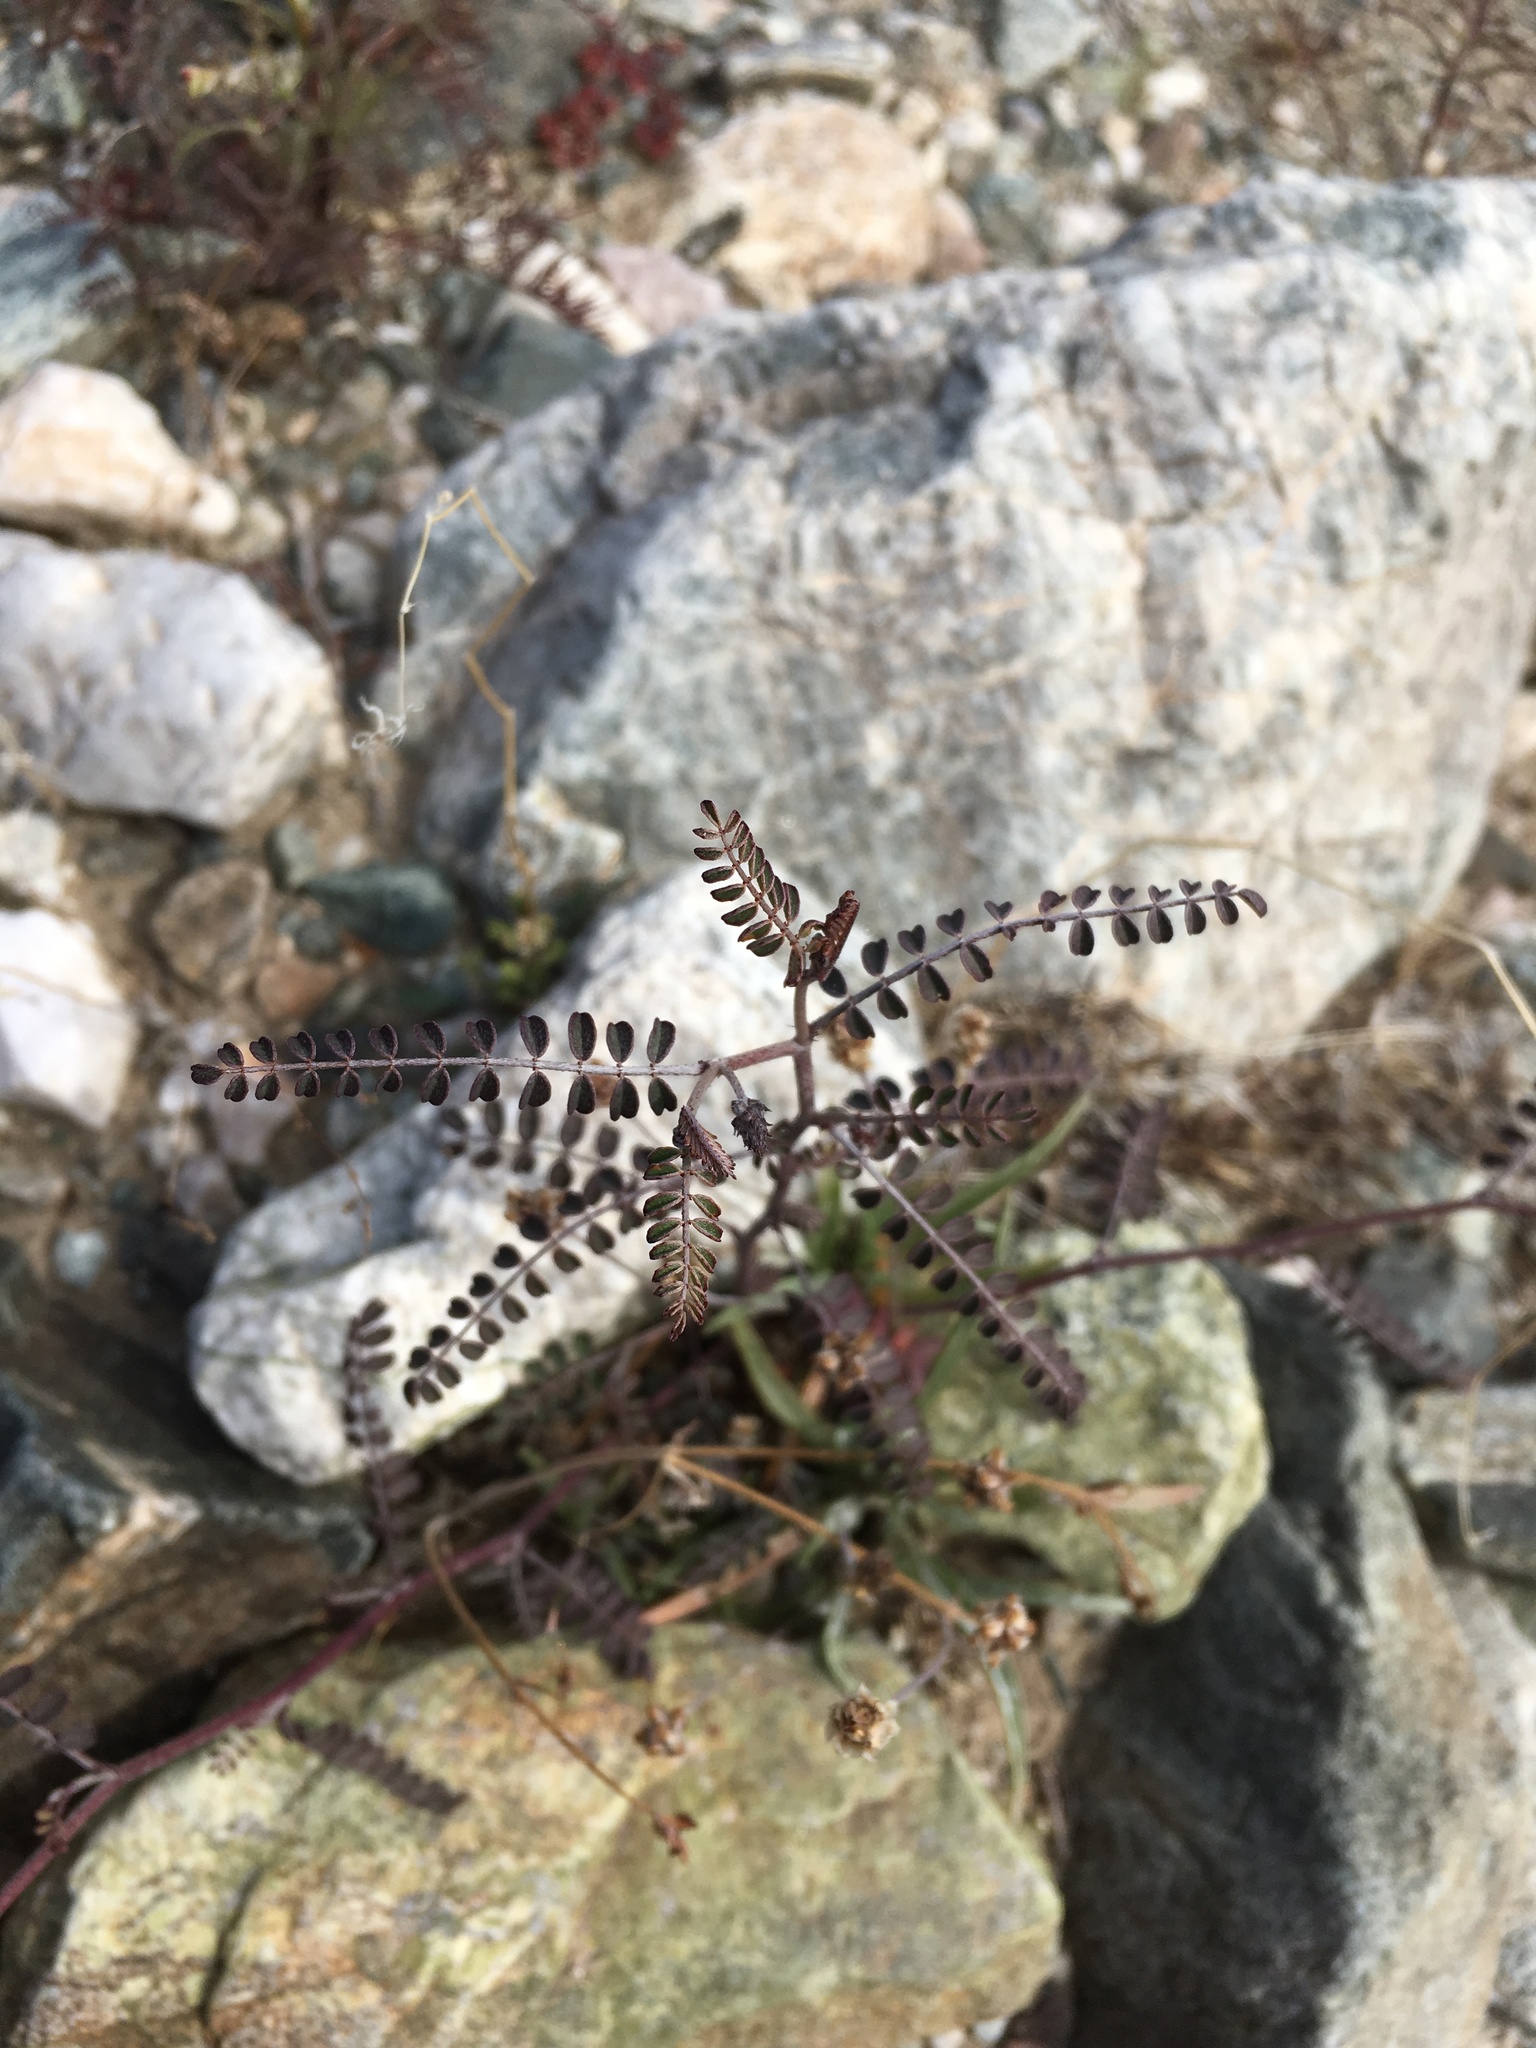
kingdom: Plantae
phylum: Tracheophyta
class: Magnoliopsida
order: Fabales
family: Fabaceae
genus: Marina
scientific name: Marina parryi
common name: Parry's marina
